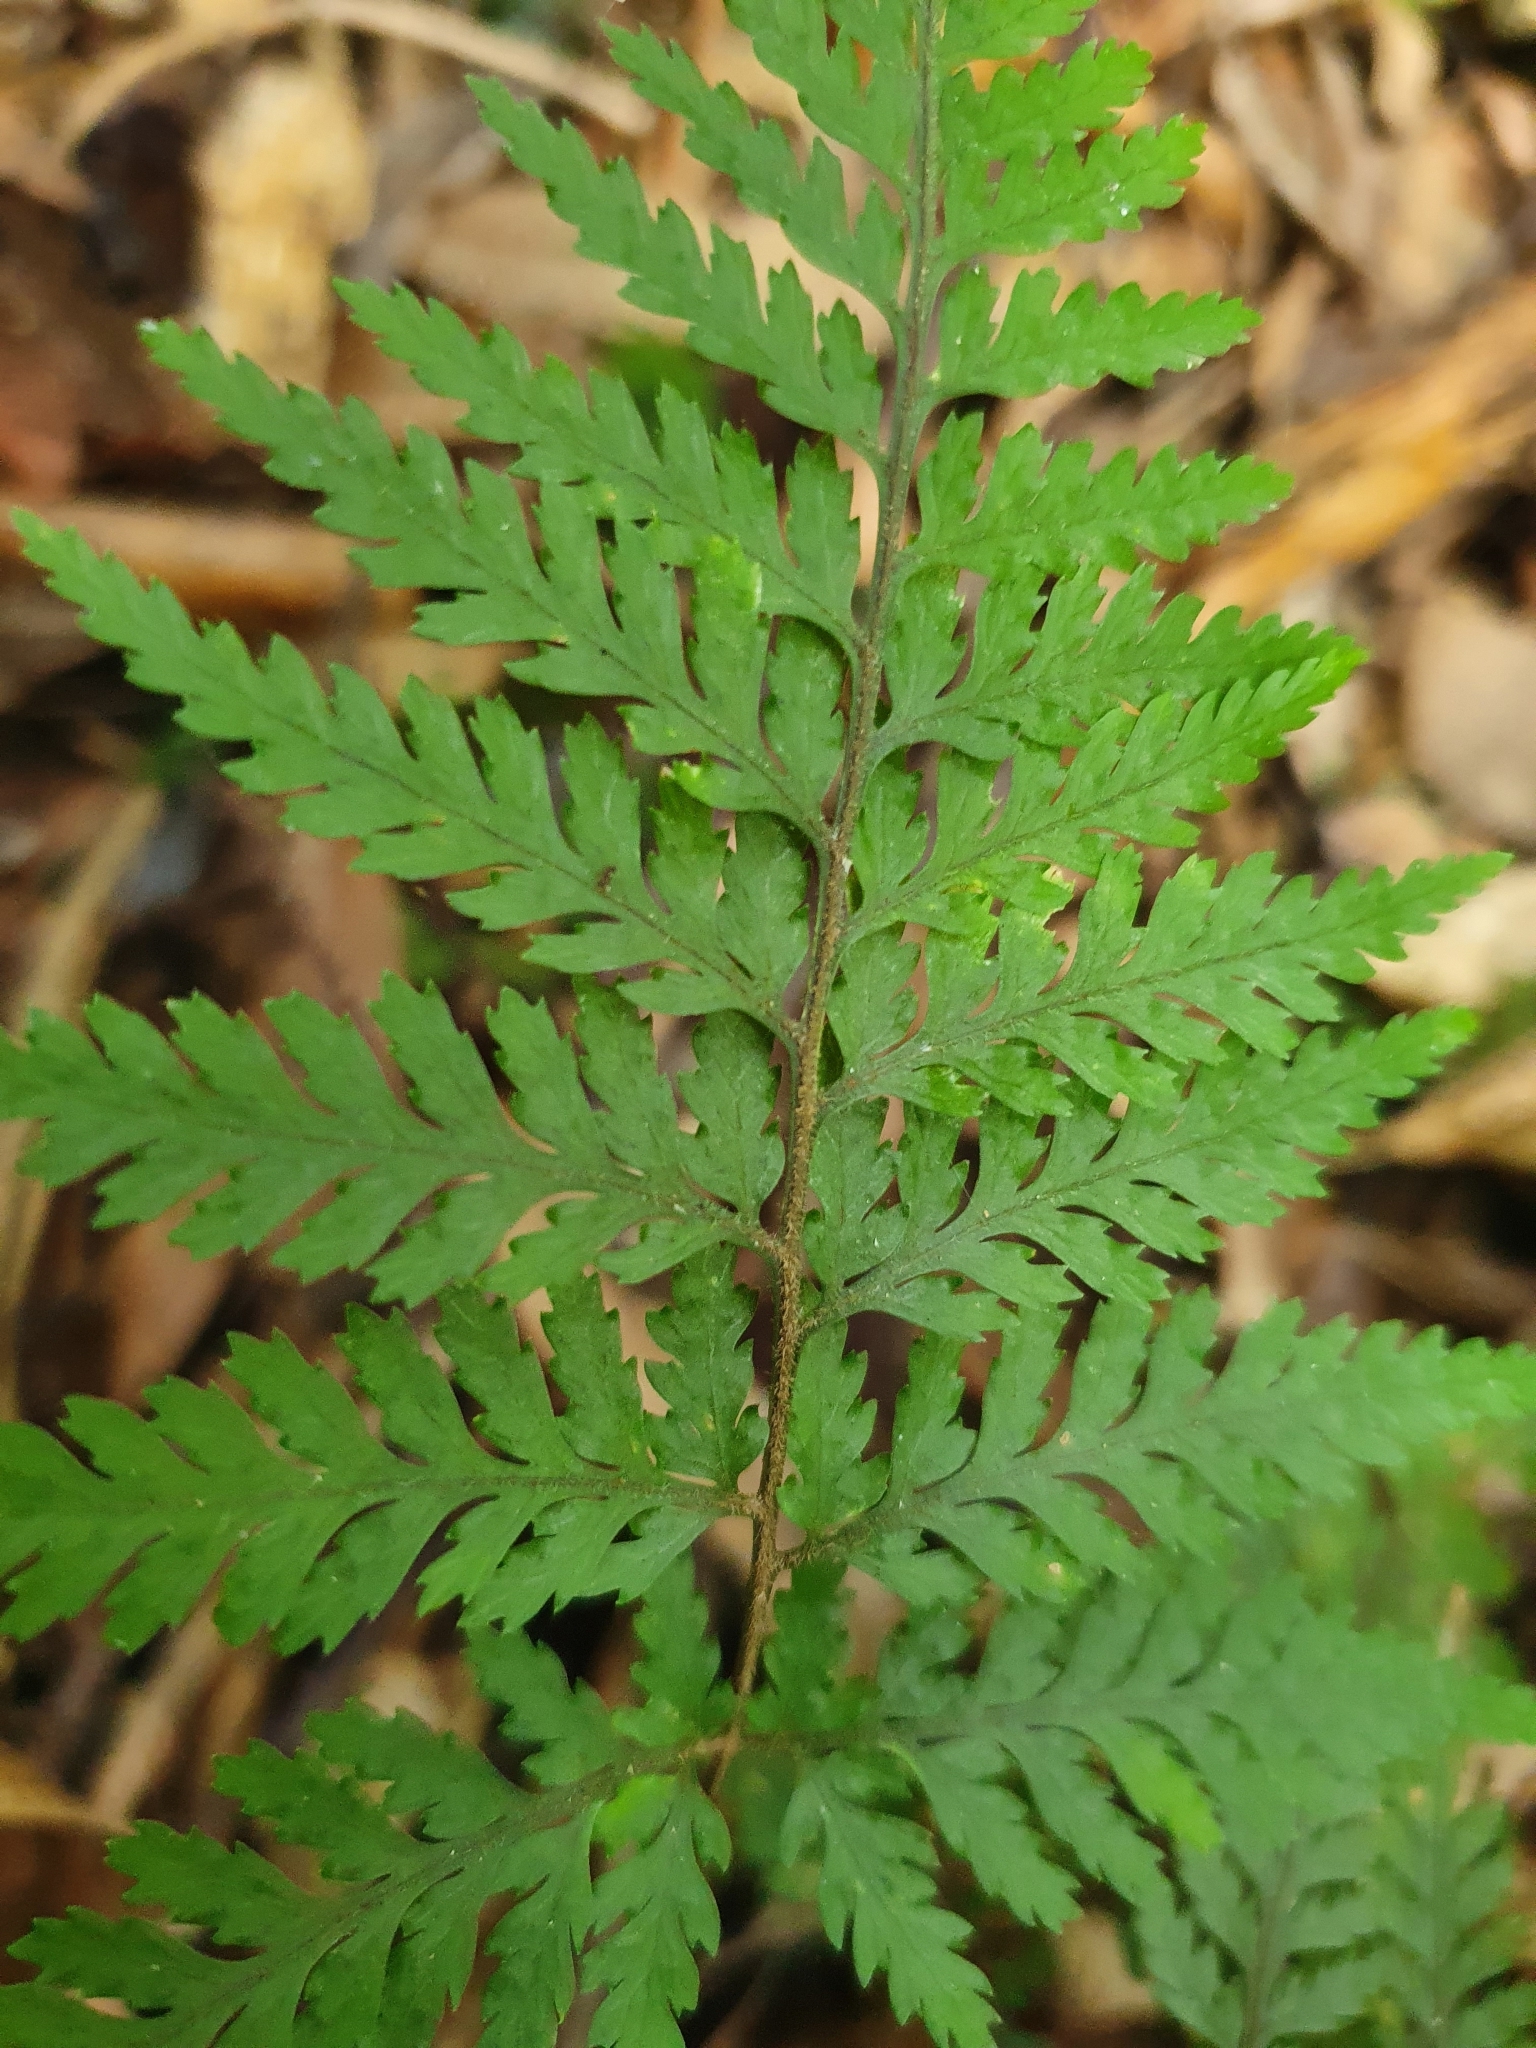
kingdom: Plantae
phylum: Tracheophyta
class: Polypodiopsida
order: Polypodiales
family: Dryopteridaceae
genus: Parapolystichum
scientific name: Parapolystichum microsorum
